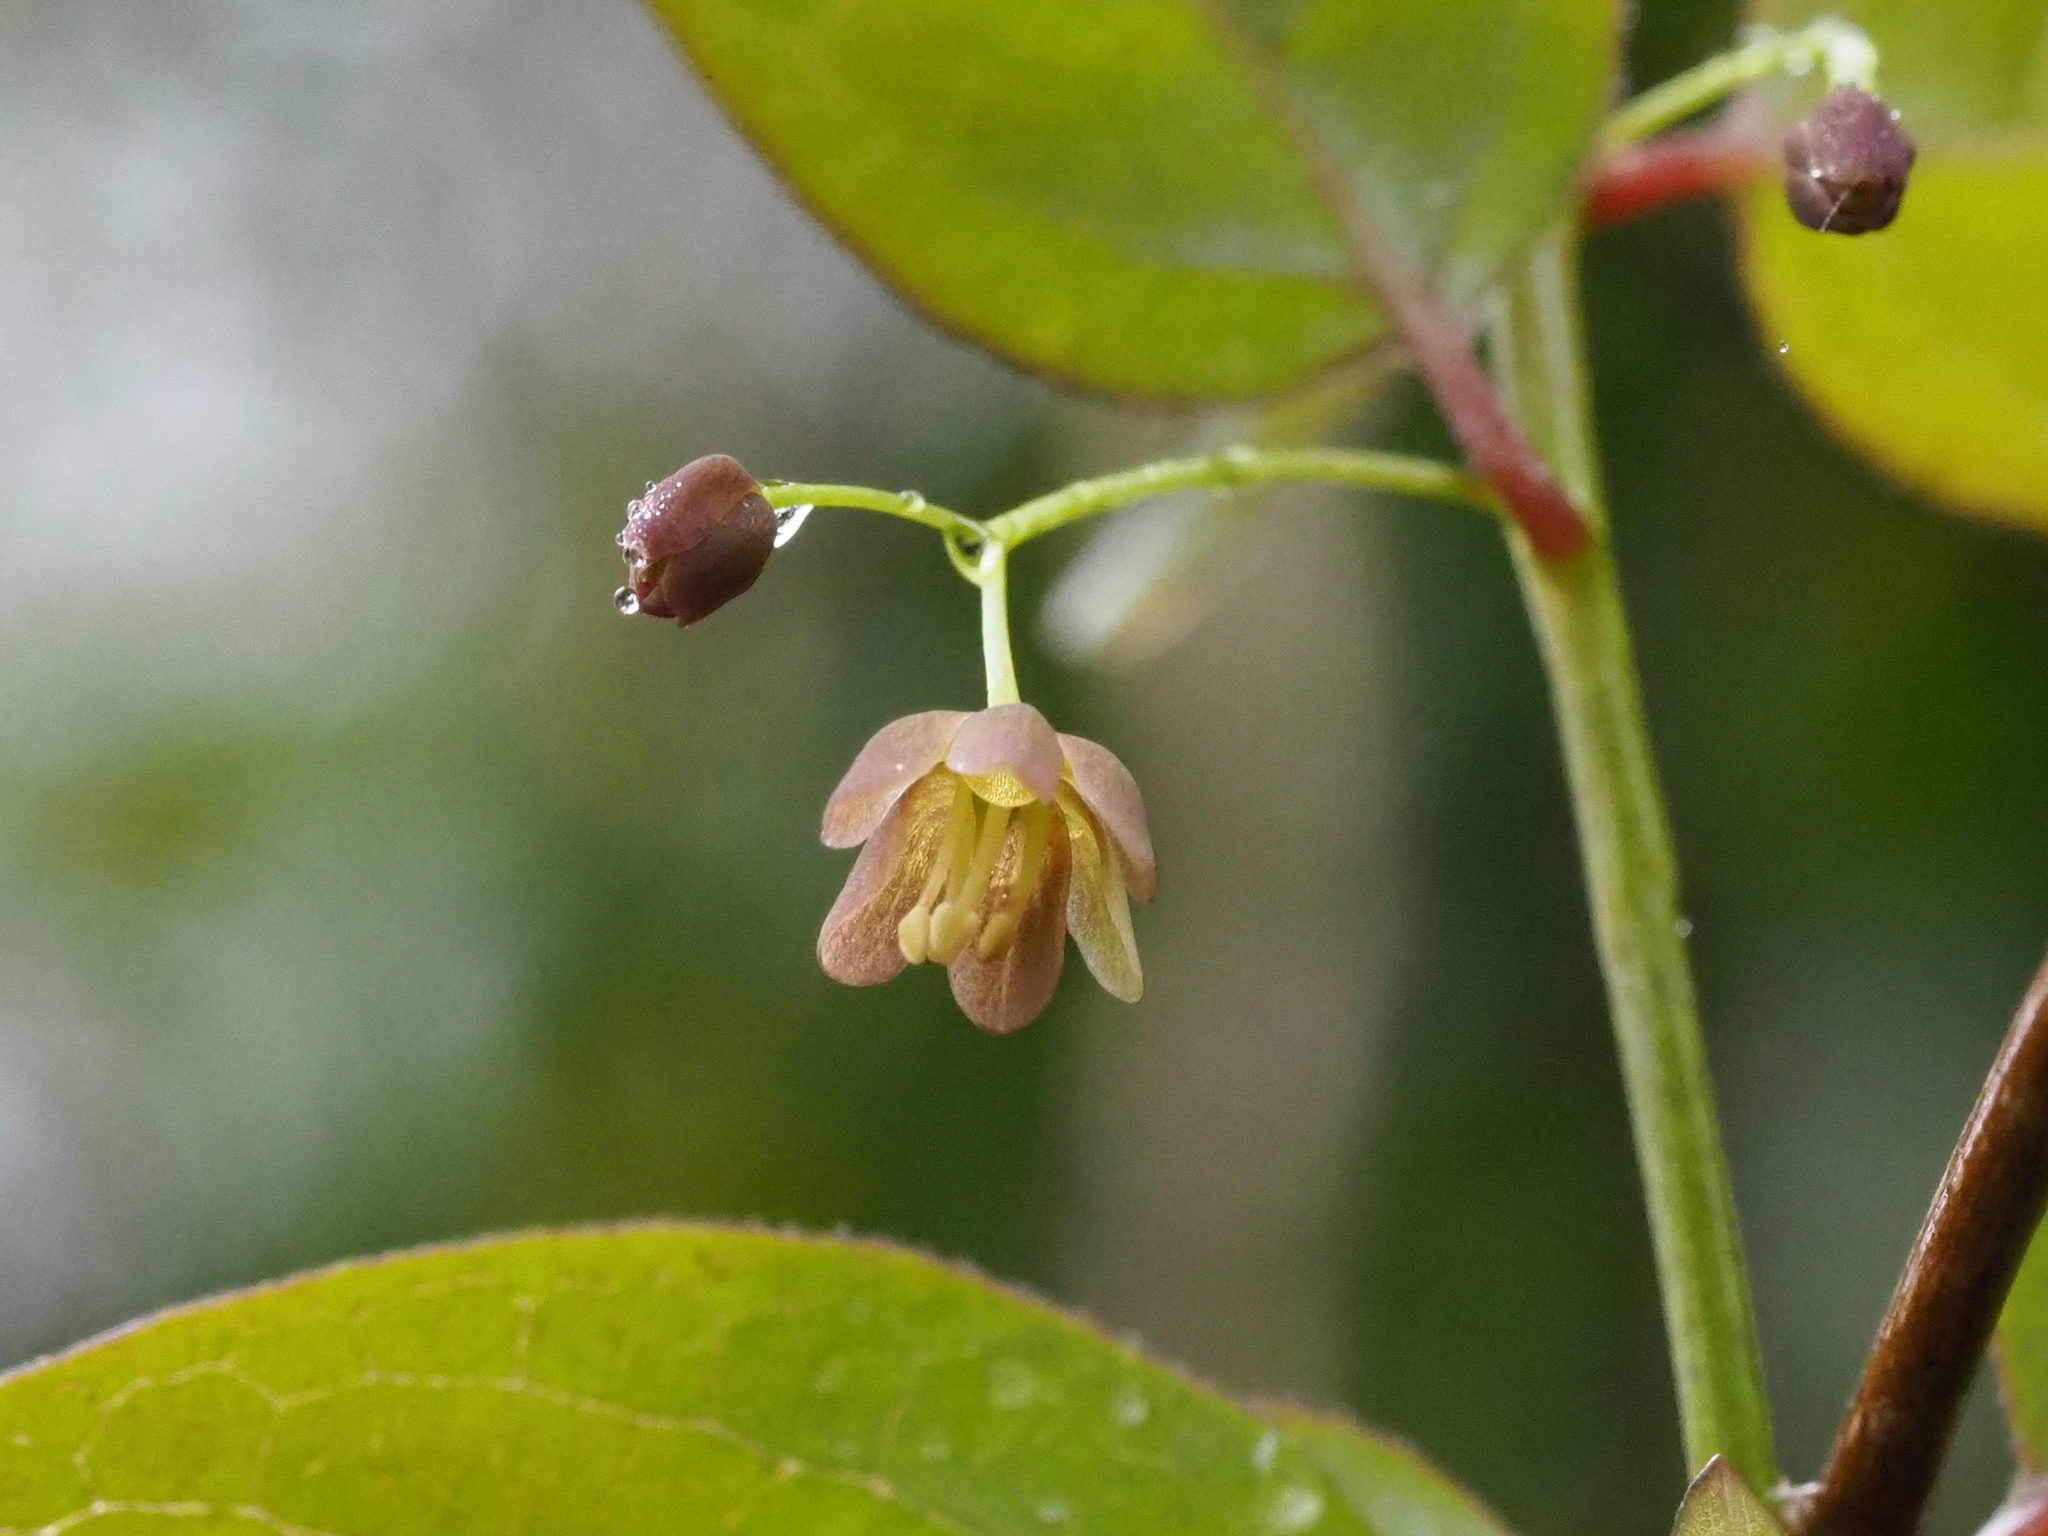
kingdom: Plantae
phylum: Tracheophyta
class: Magnoliopsida
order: Proteales
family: Sabiaceae
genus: Sabia
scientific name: Sabia transarisanensis
